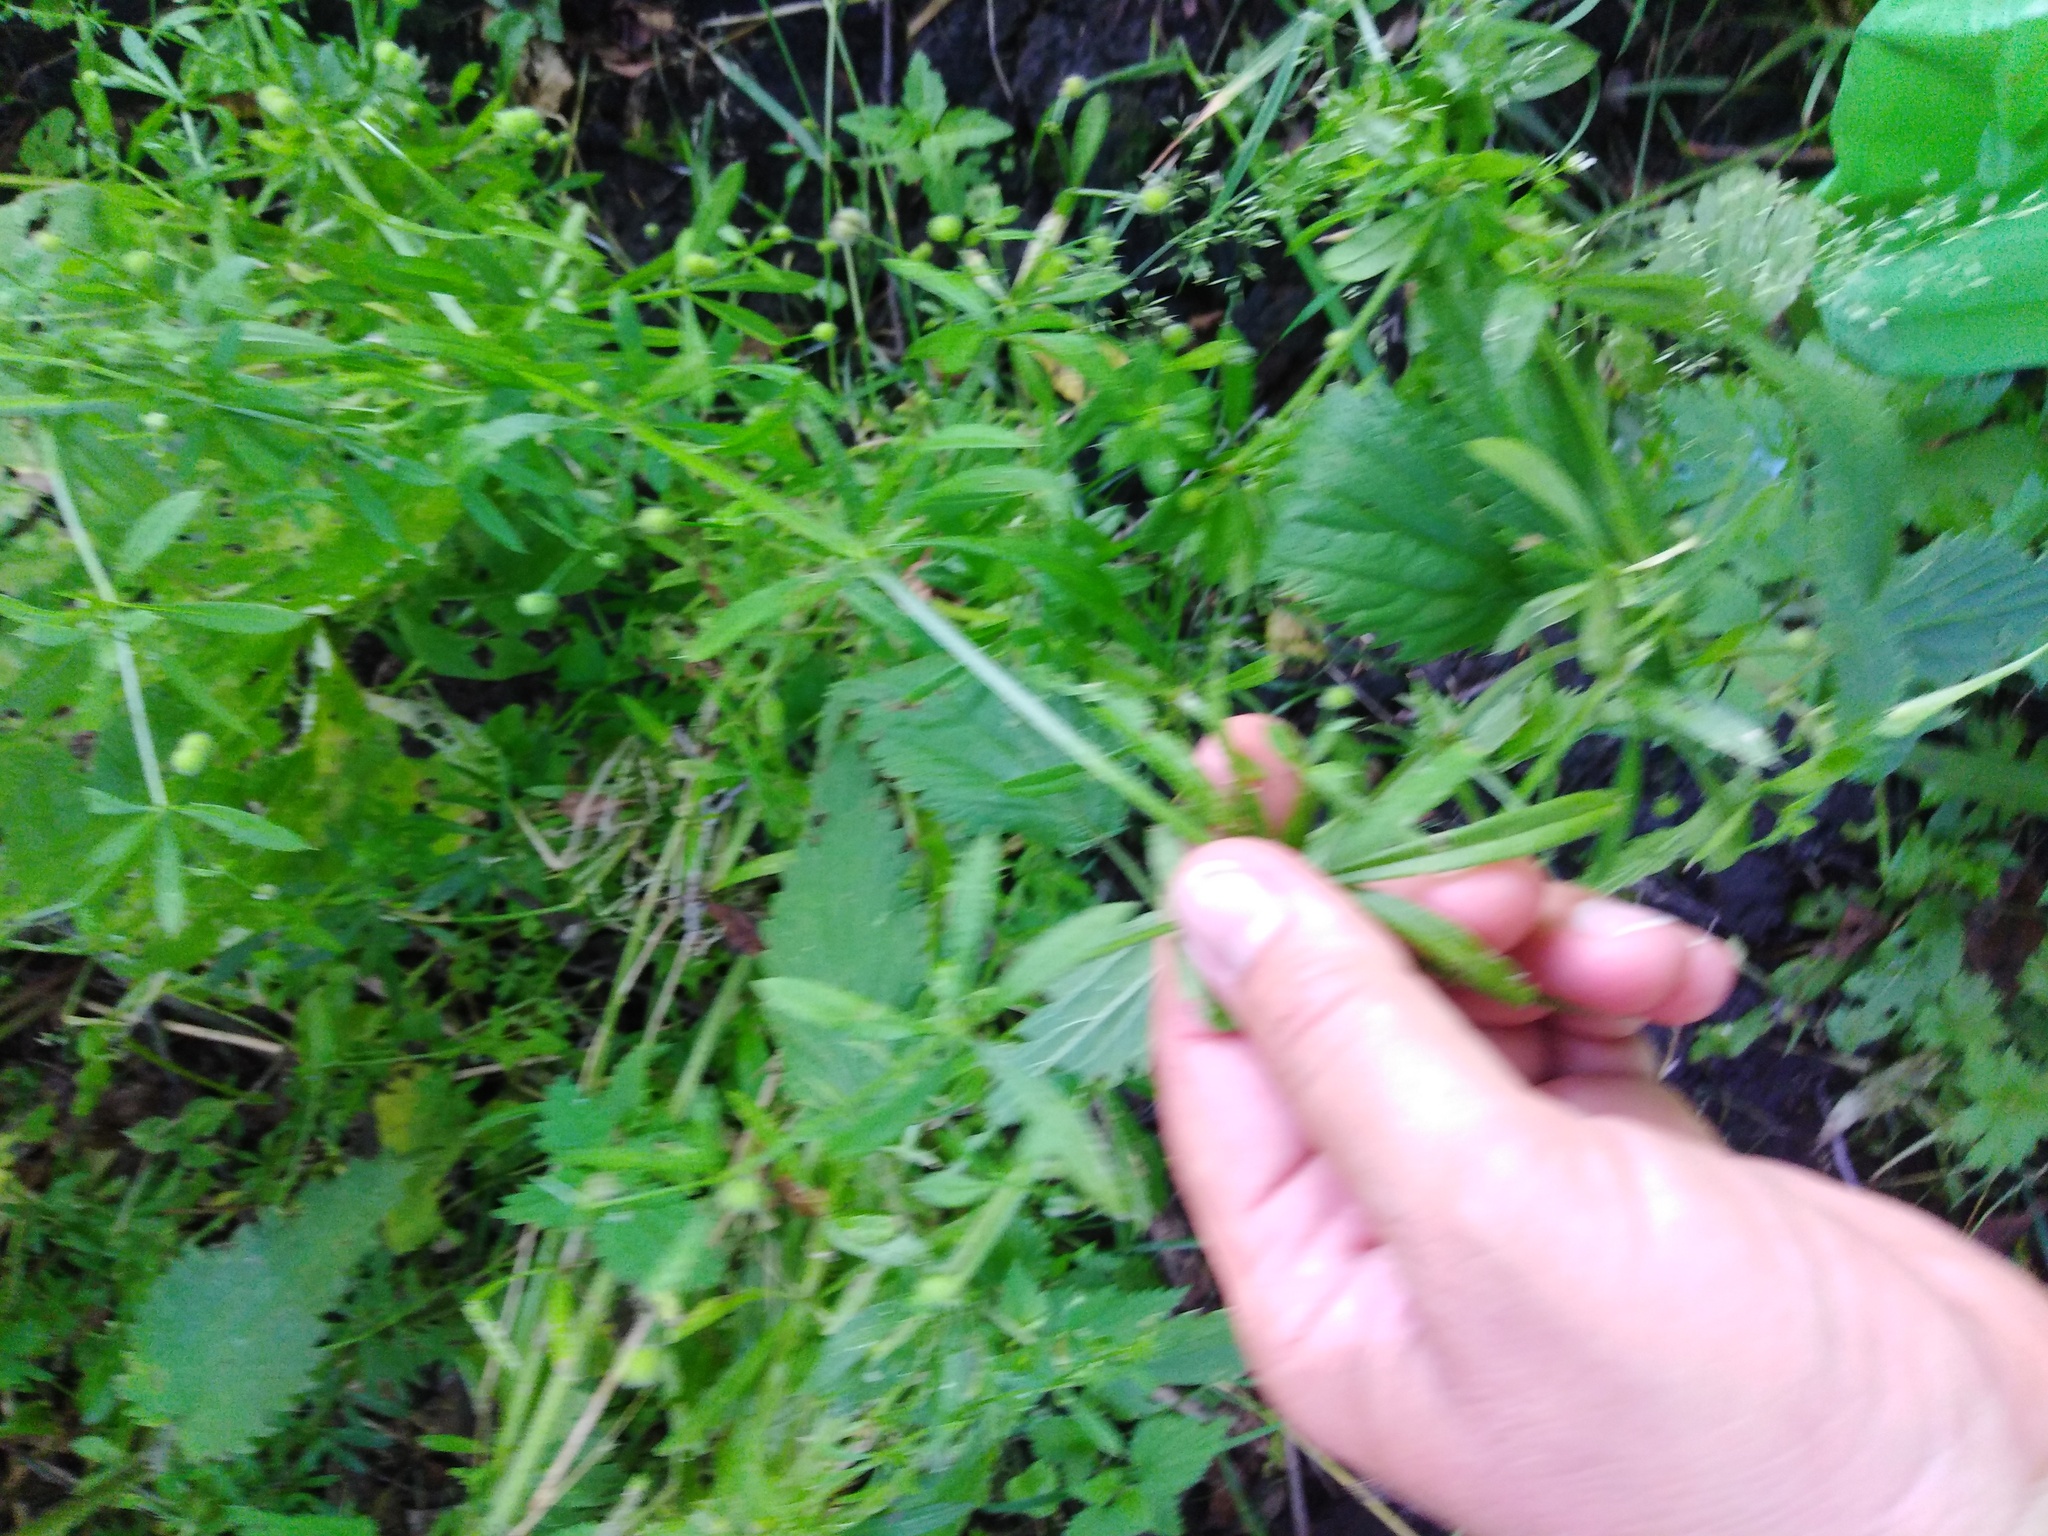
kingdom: Plantae
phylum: Tracheophyta
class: Magnoliopsida
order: Gentianales
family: Rubiaceae
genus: Galium
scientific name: Galium aparine
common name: Cleavers
